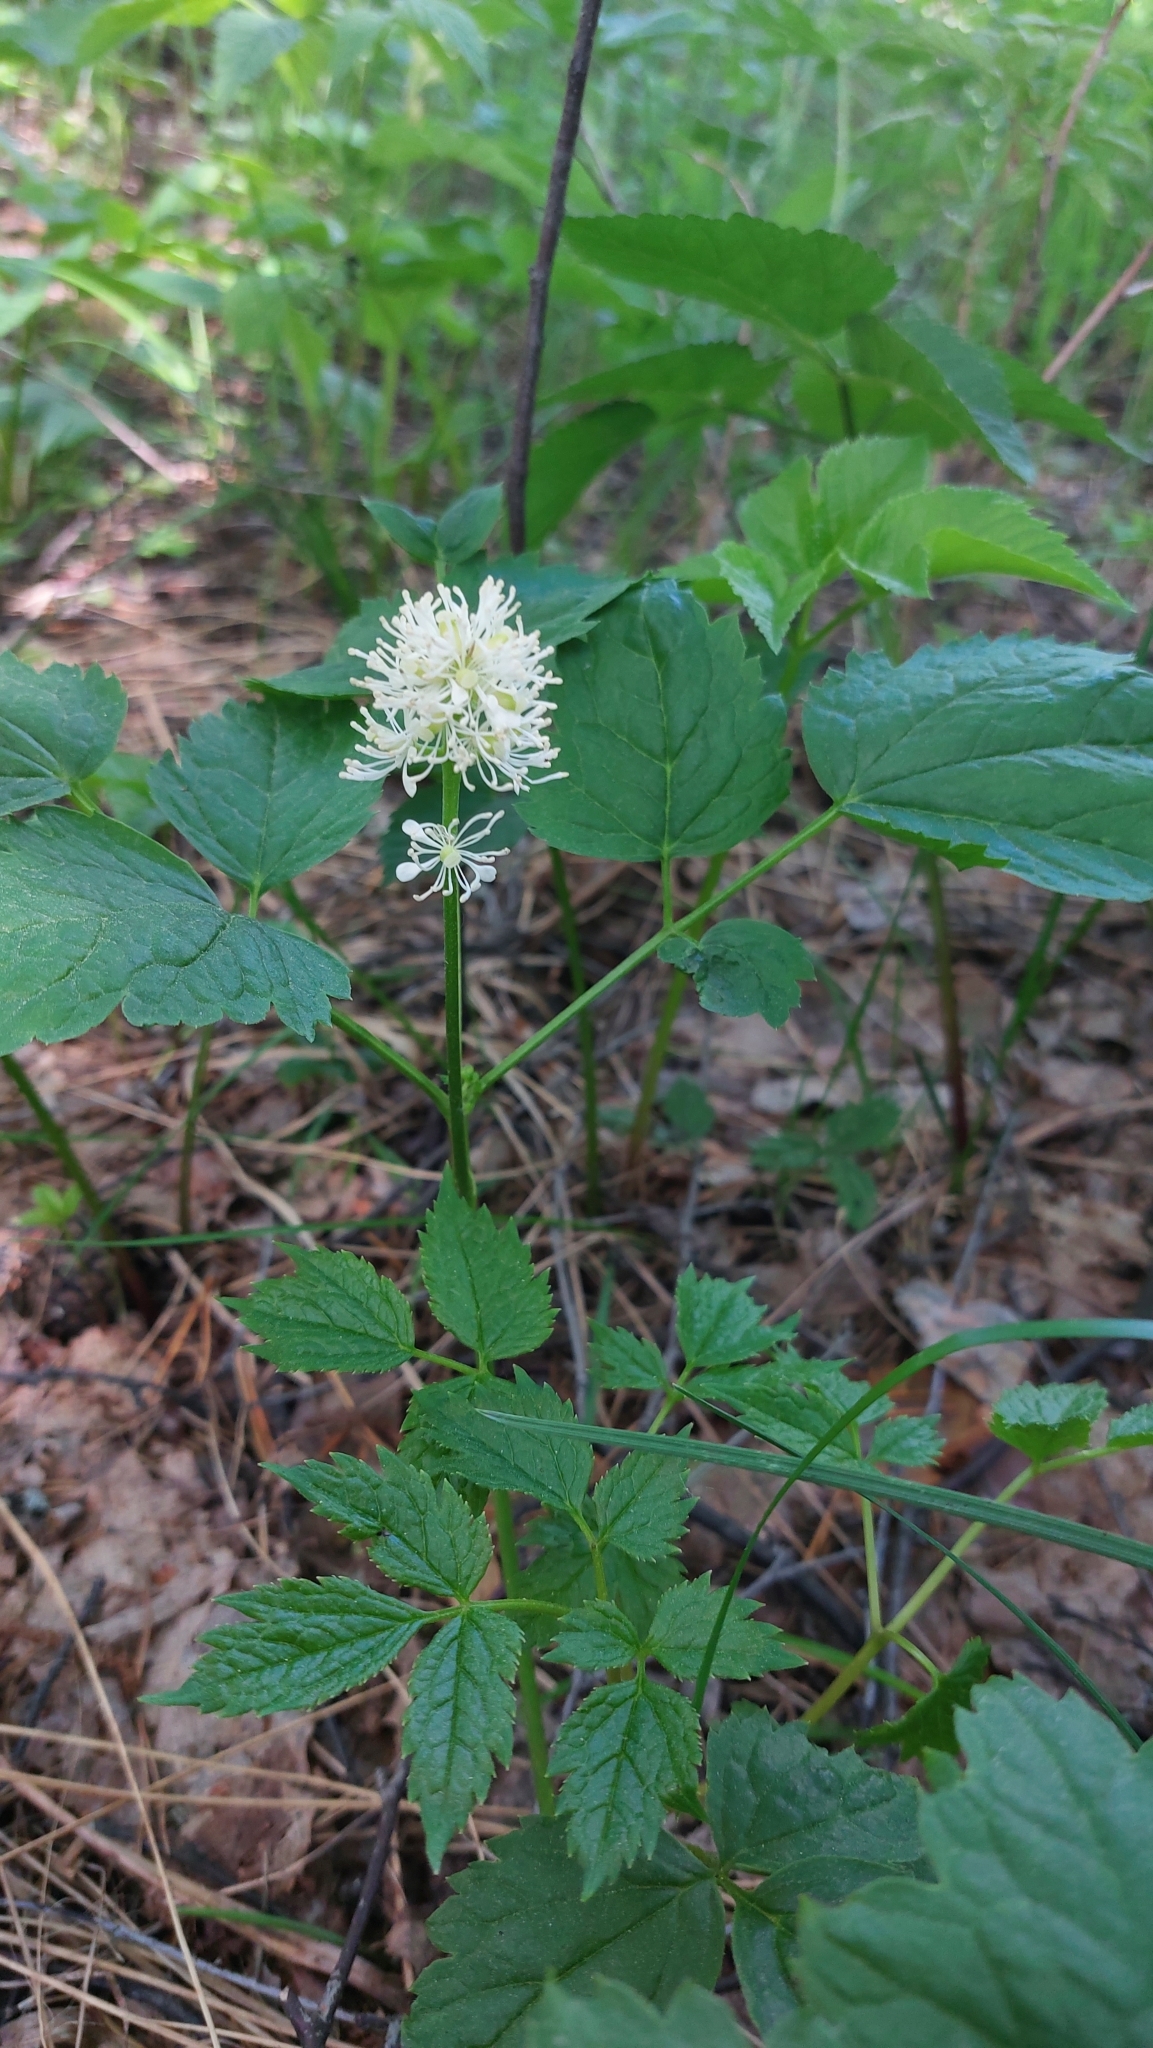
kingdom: Plantae
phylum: Tracheophyta
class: Magnoliopsida
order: Ranunculales
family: Ranunculaceae
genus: Actaea
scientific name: Actaea spicata
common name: Baneberry
